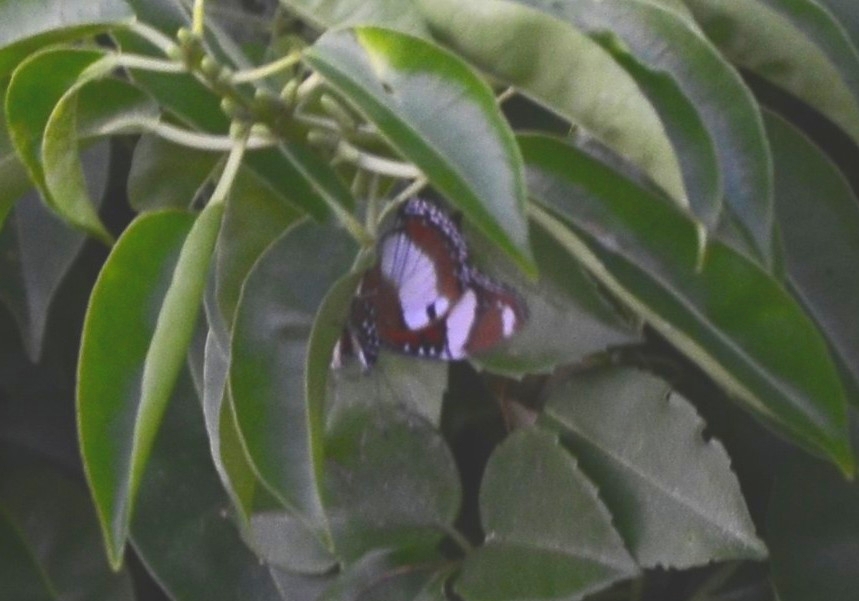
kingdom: Animalia
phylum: Arthropoda
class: Insecta
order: Lepidoptera
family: Nymphalidae
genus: Hypolimnas
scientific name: Hypolimnas misippus
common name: False plain tiger
